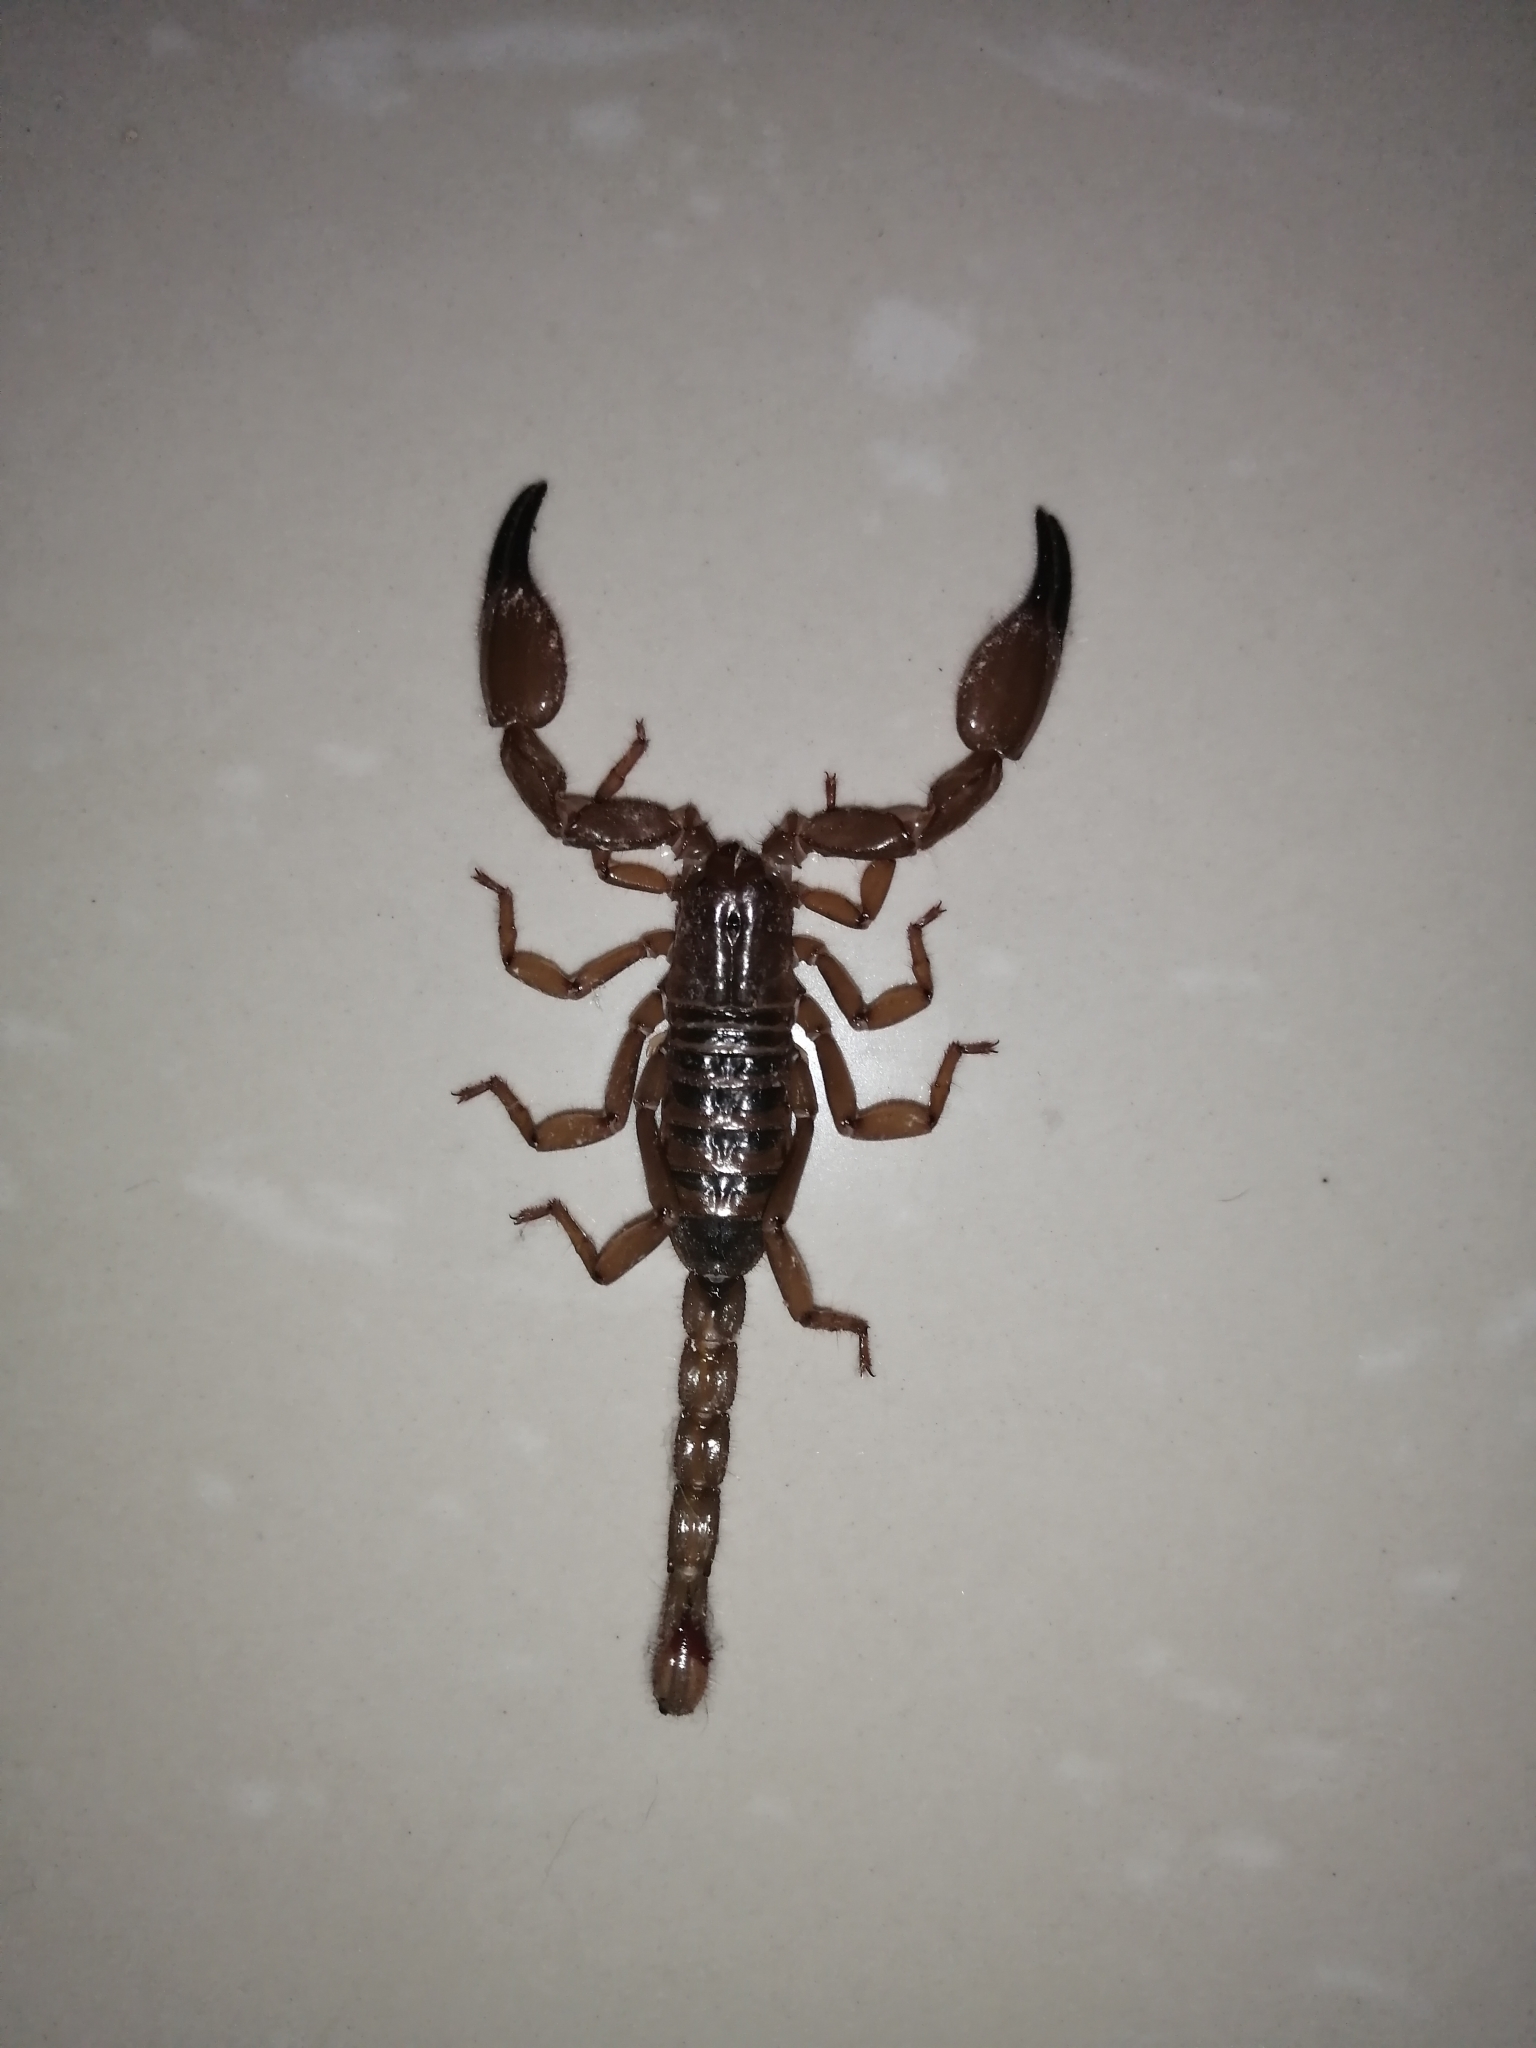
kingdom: Animalia
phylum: Arthropoda
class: Arachnida
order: Scorpiones
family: Diplocentridae
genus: Diplocentrus
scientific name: Diplocentrus reddelli
